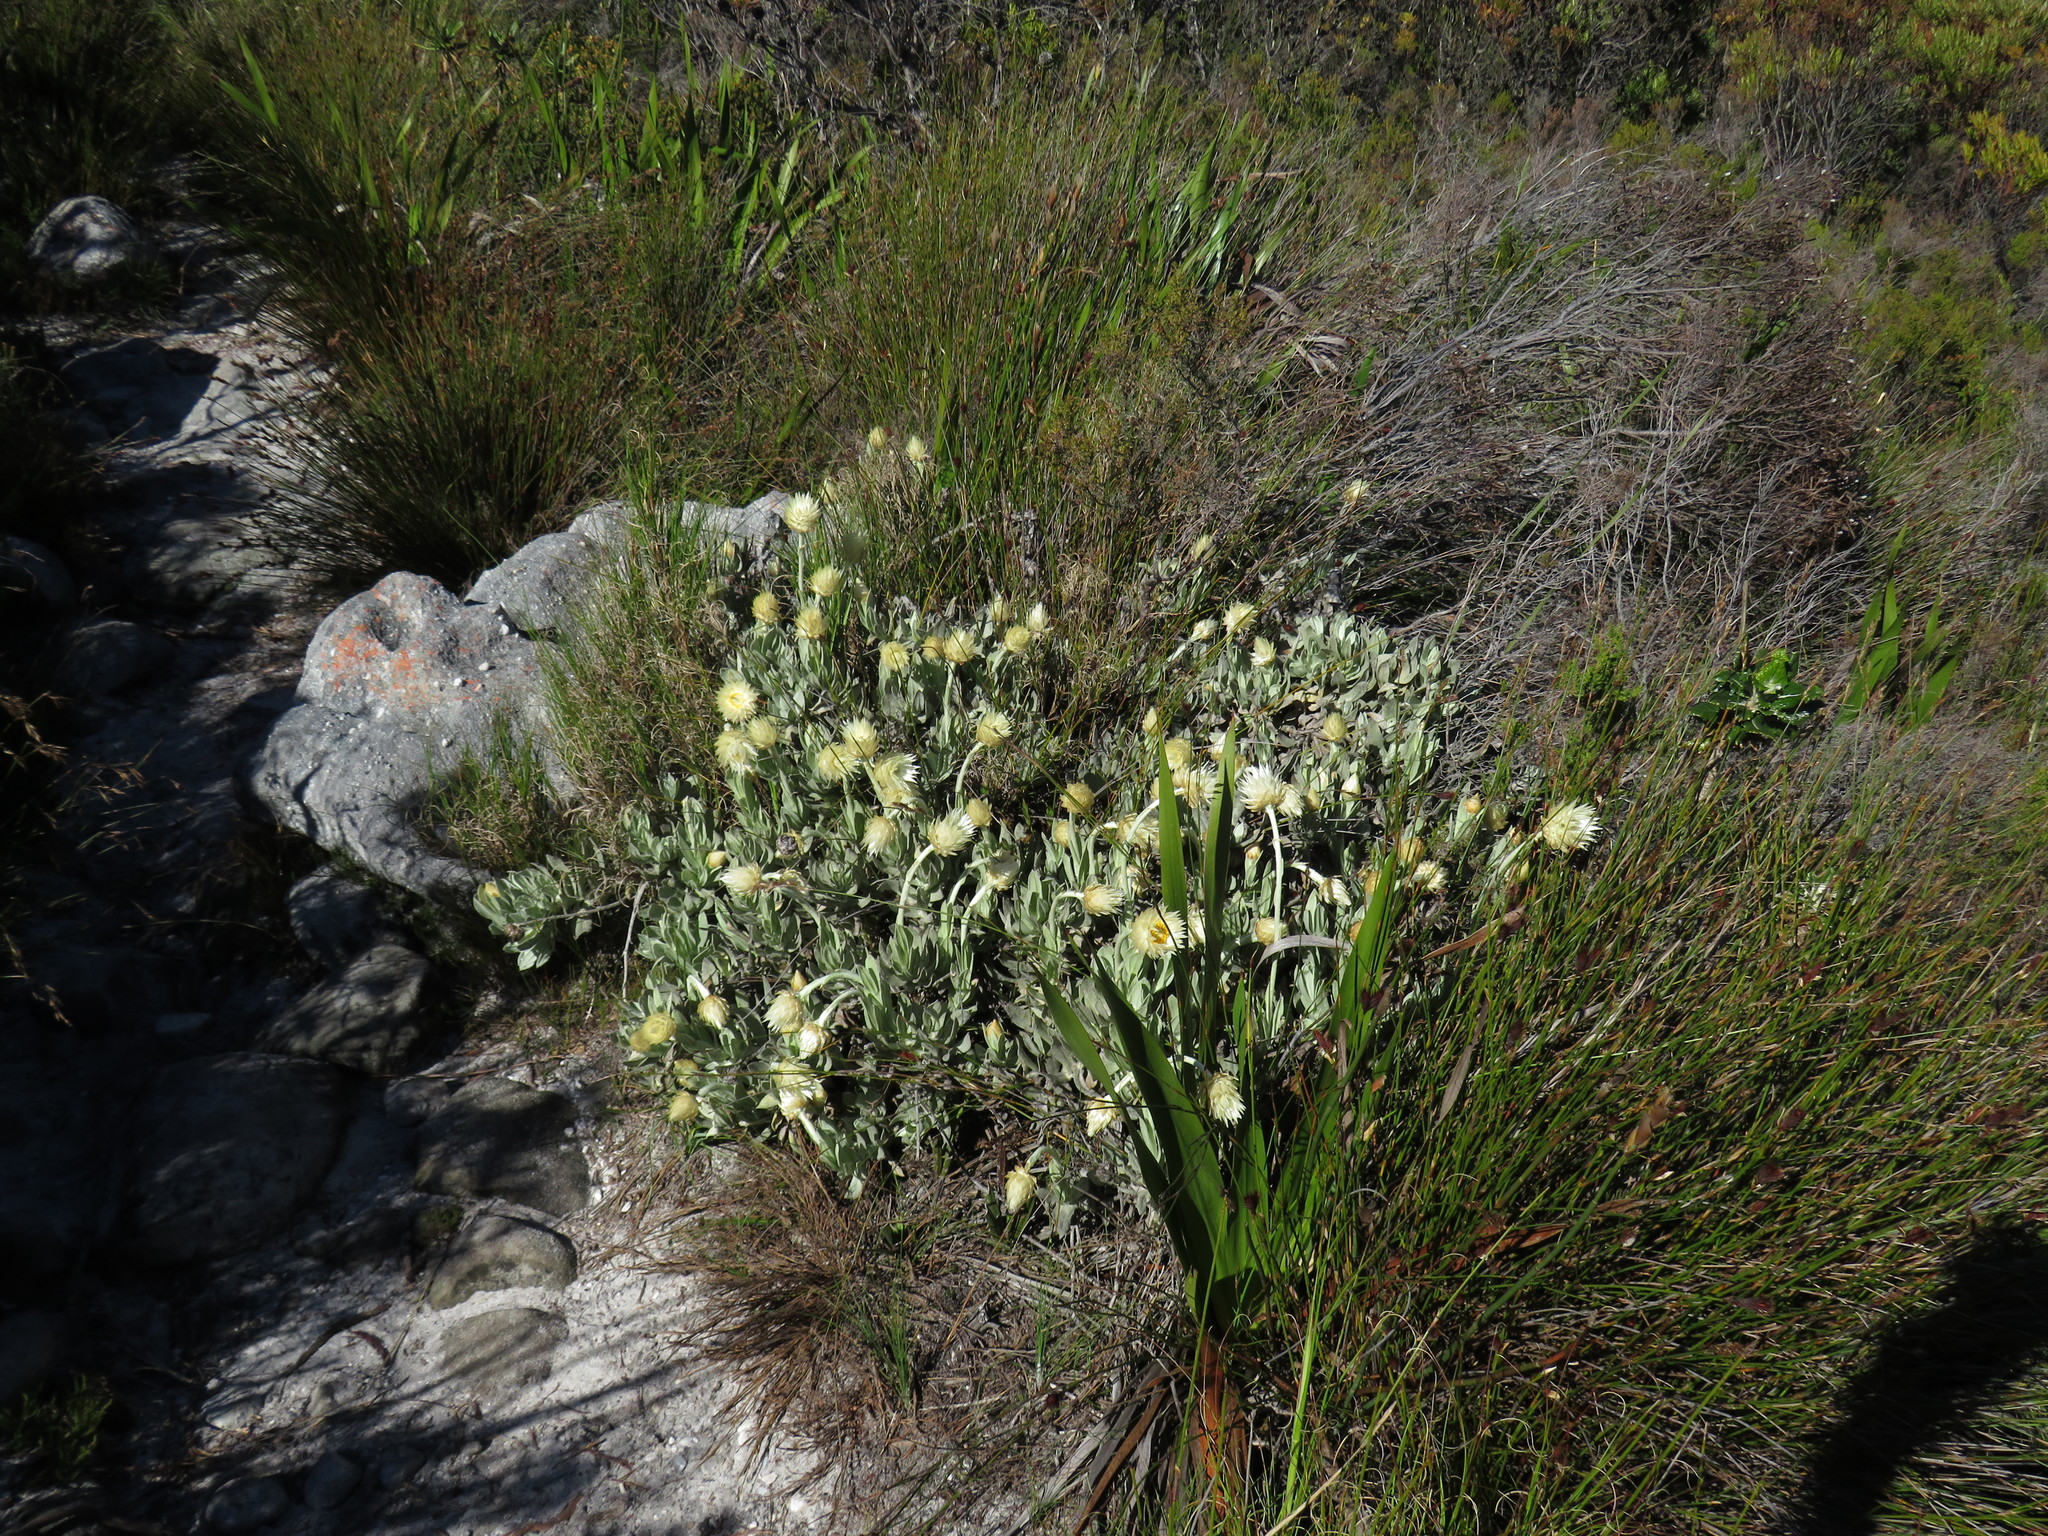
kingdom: Plantae
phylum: Tracheophyta
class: Magnoliopsida
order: Asterales
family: Asteraceae
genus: Syncarpha
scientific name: Syncarpha speciosissima
